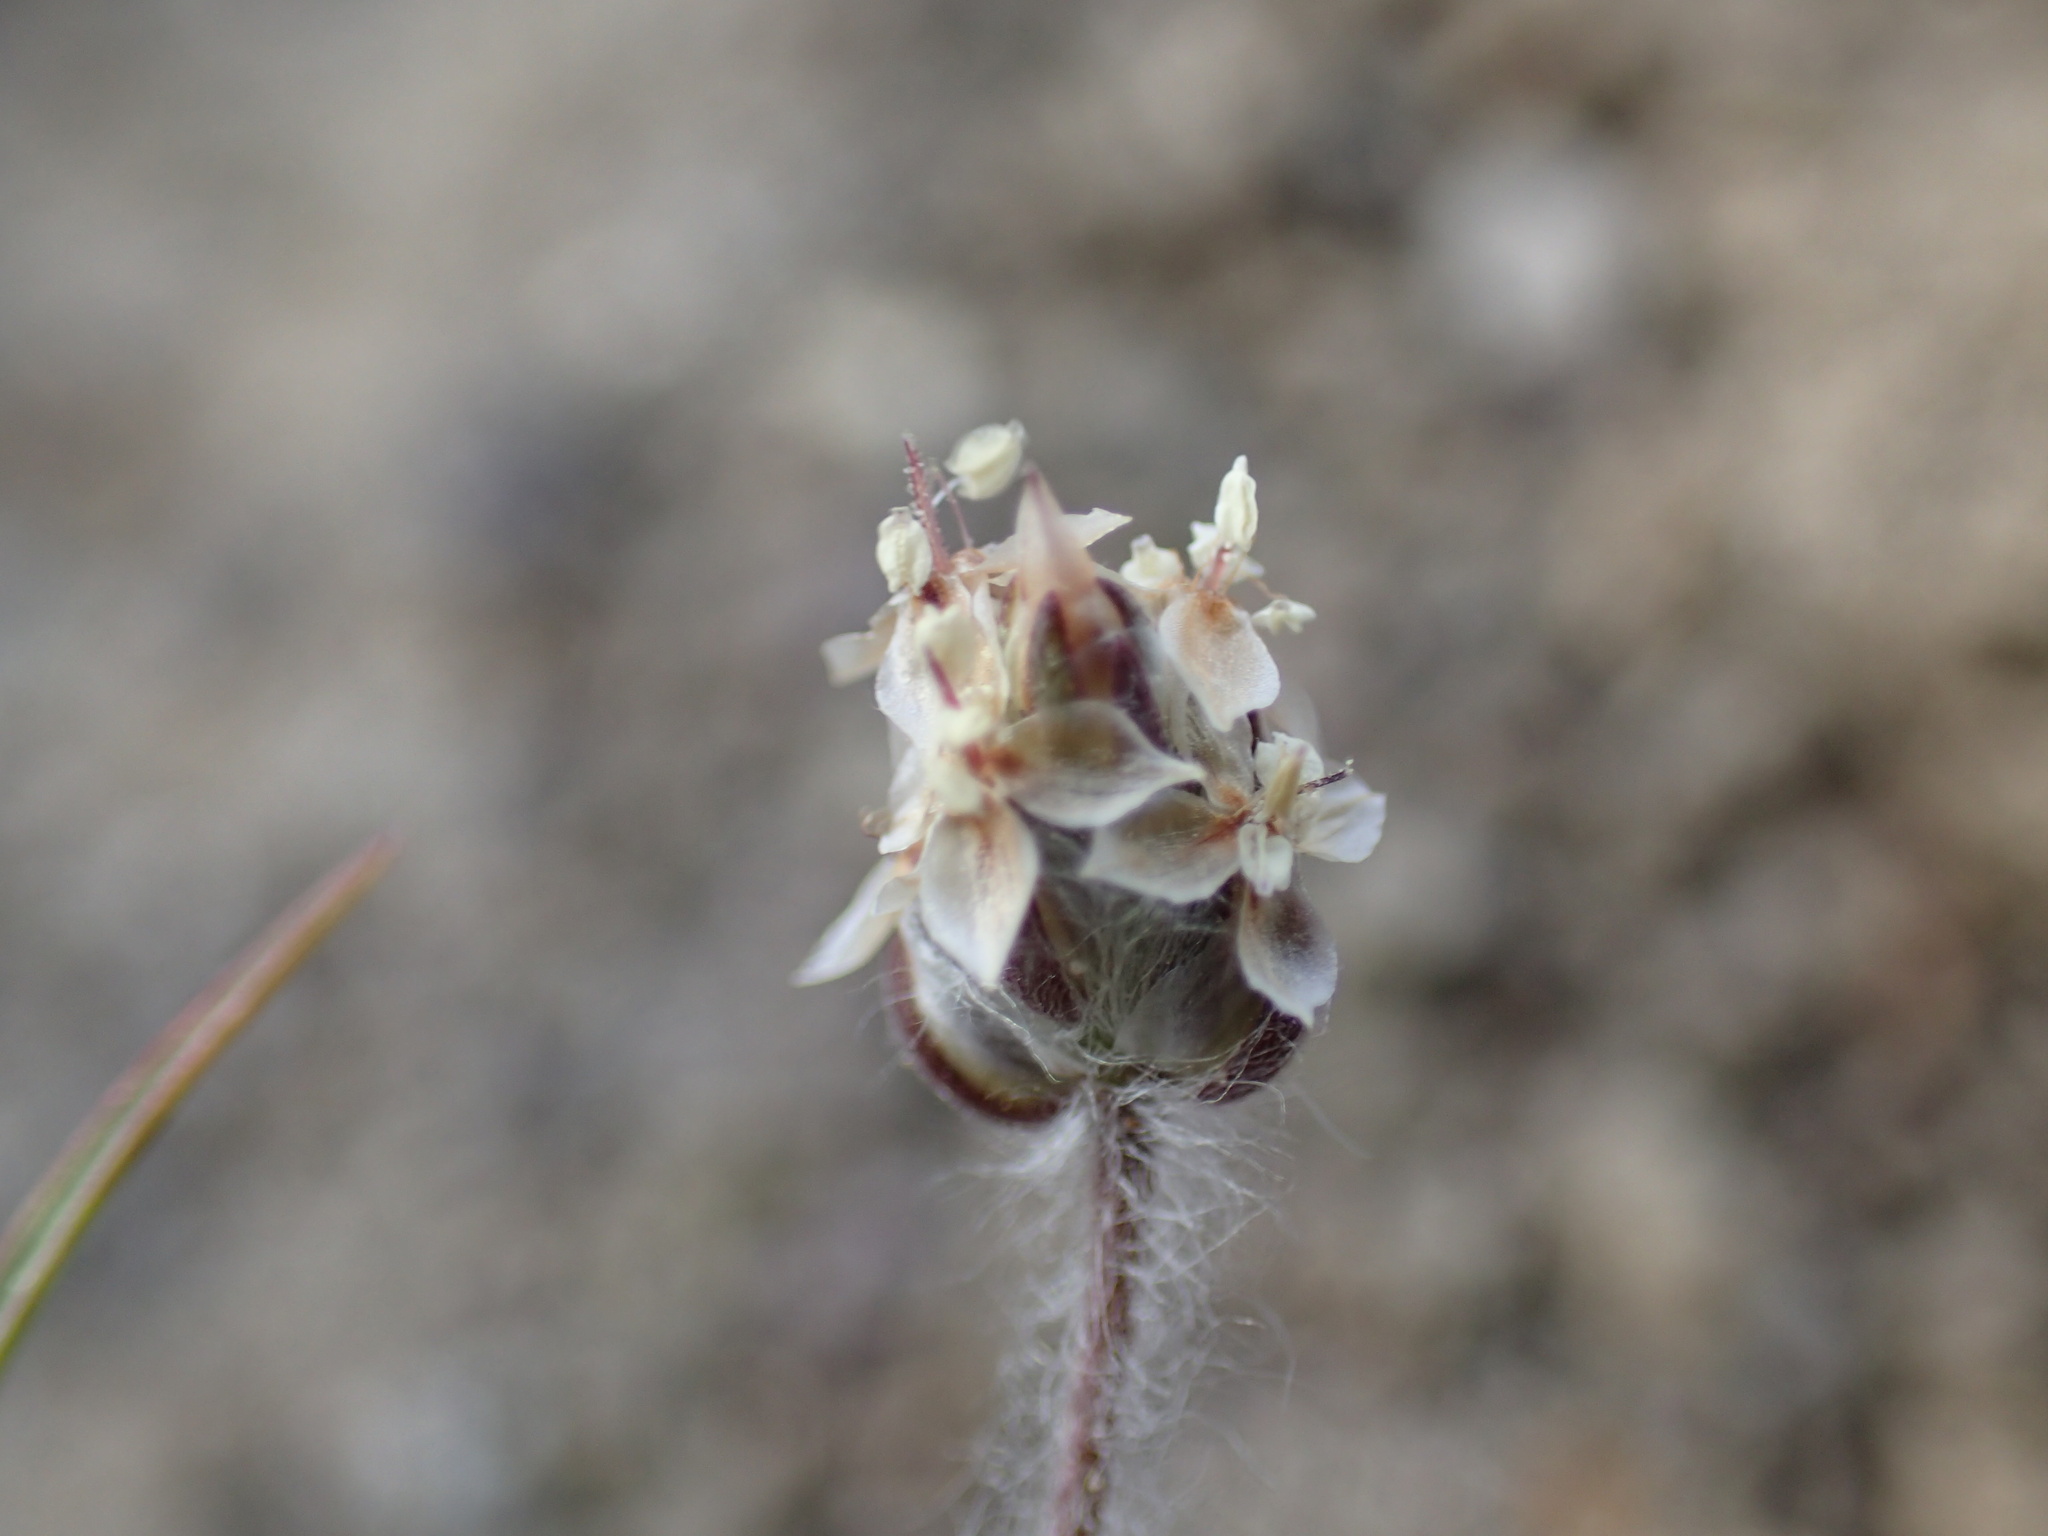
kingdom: Plantae
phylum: Tracheophyta
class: Magnoliopsida
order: Lamiales
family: Plantaginaceae
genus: Plantago
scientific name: Plantago ovata
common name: Blond plantain
